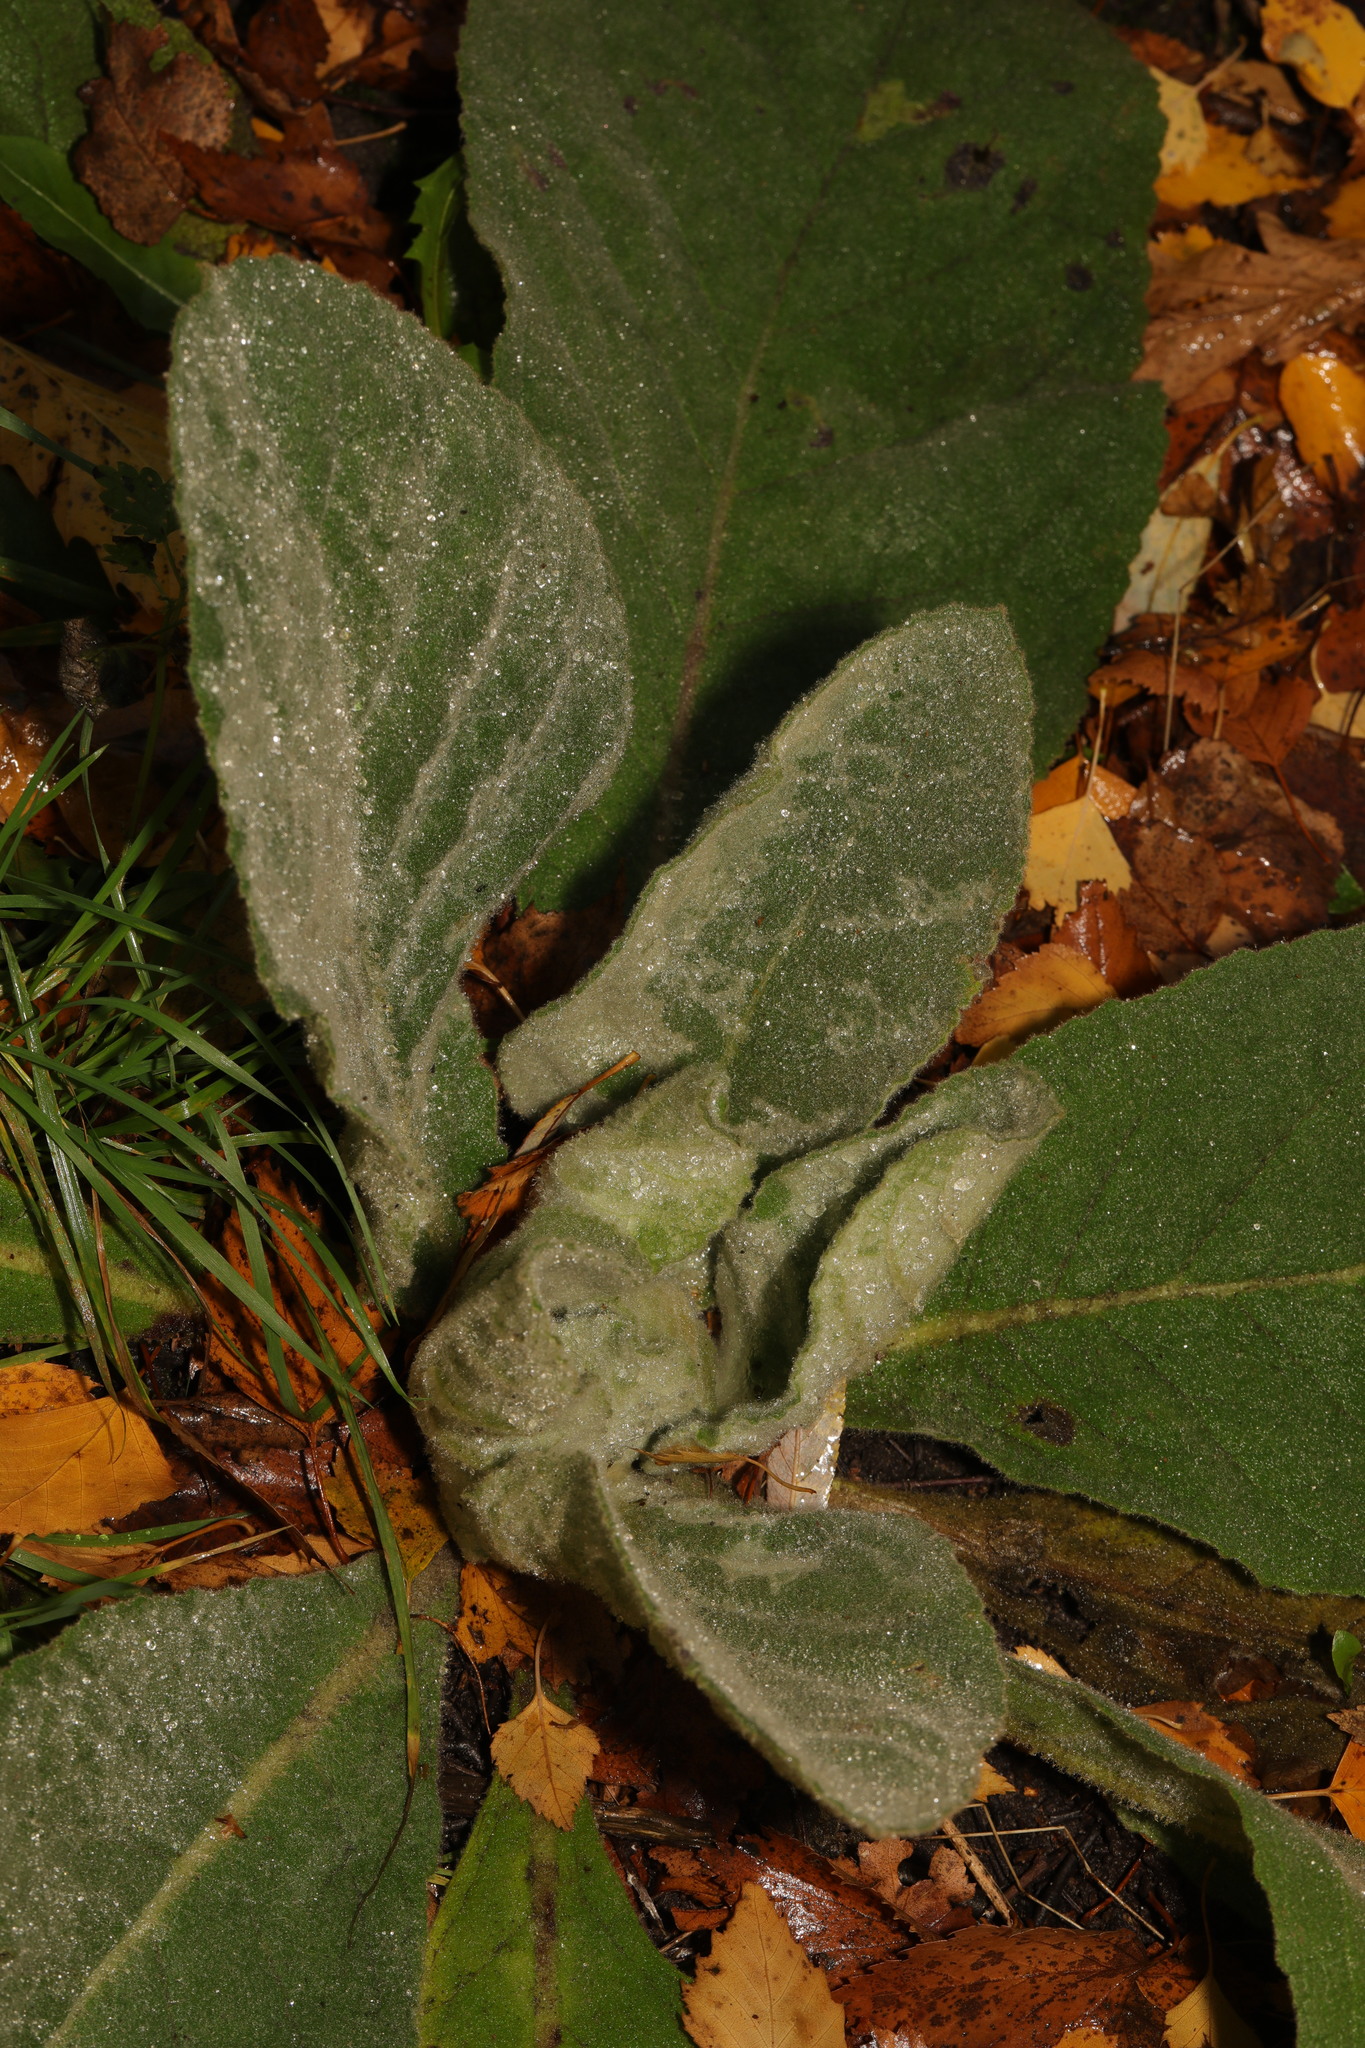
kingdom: Plantae
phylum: Tracheophyta
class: Magnoliopsida
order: Lamiales
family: Scrophulariaceae
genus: Verbascum
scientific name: Verbascum thapsus
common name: Common mullein
